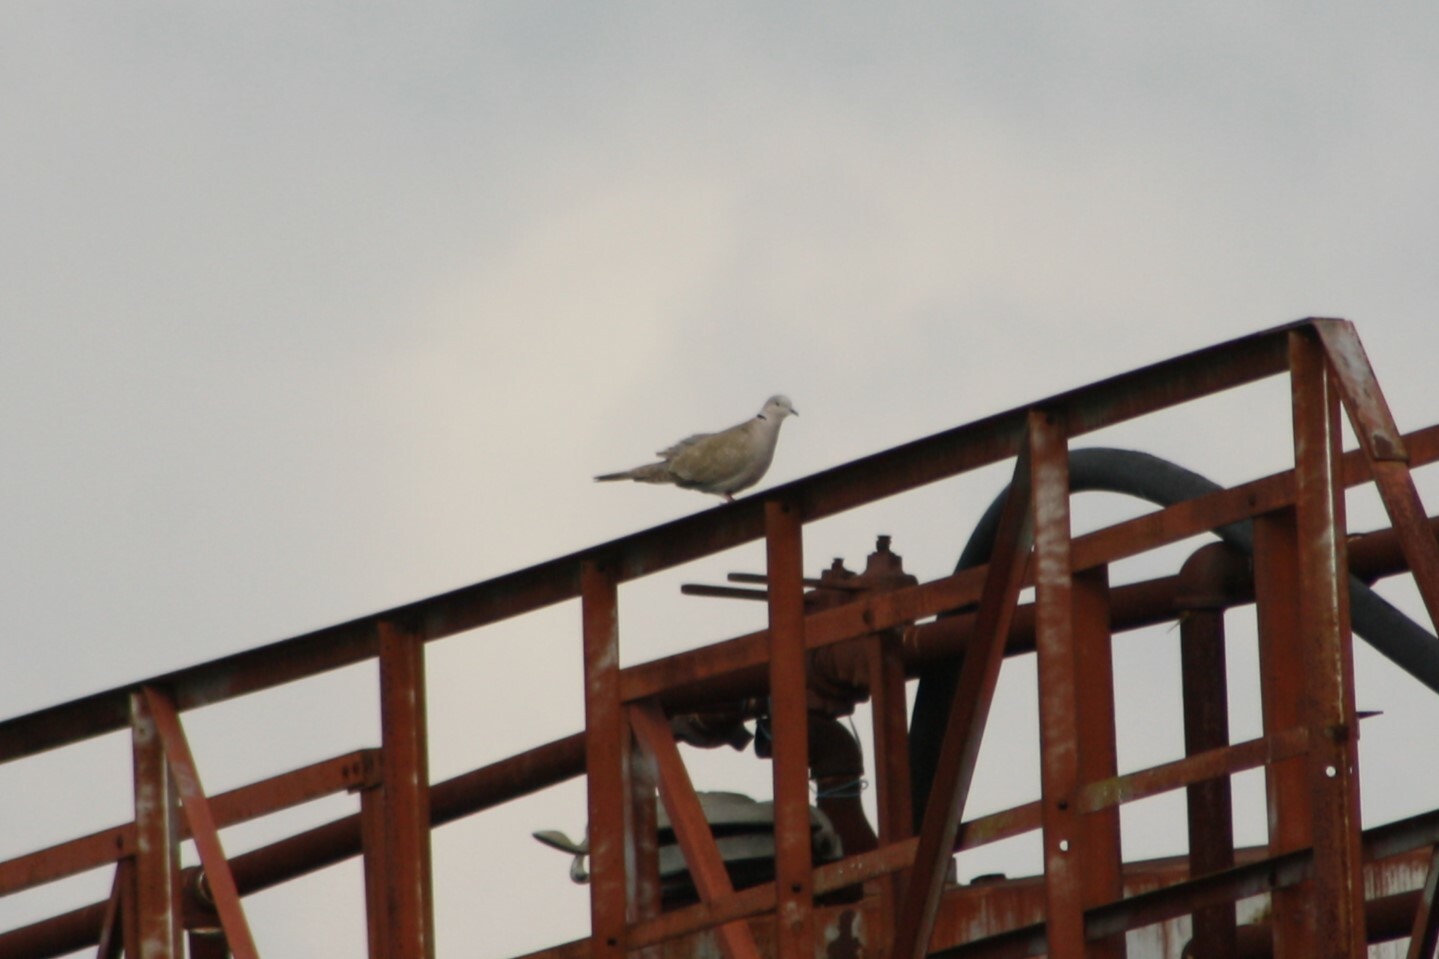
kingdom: Animalia
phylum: Chordata
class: Aves
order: Columbiformes
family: Columbidae
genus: Streptopelia
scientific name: Streptopelia decaocto
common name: Eurasian collared dove
